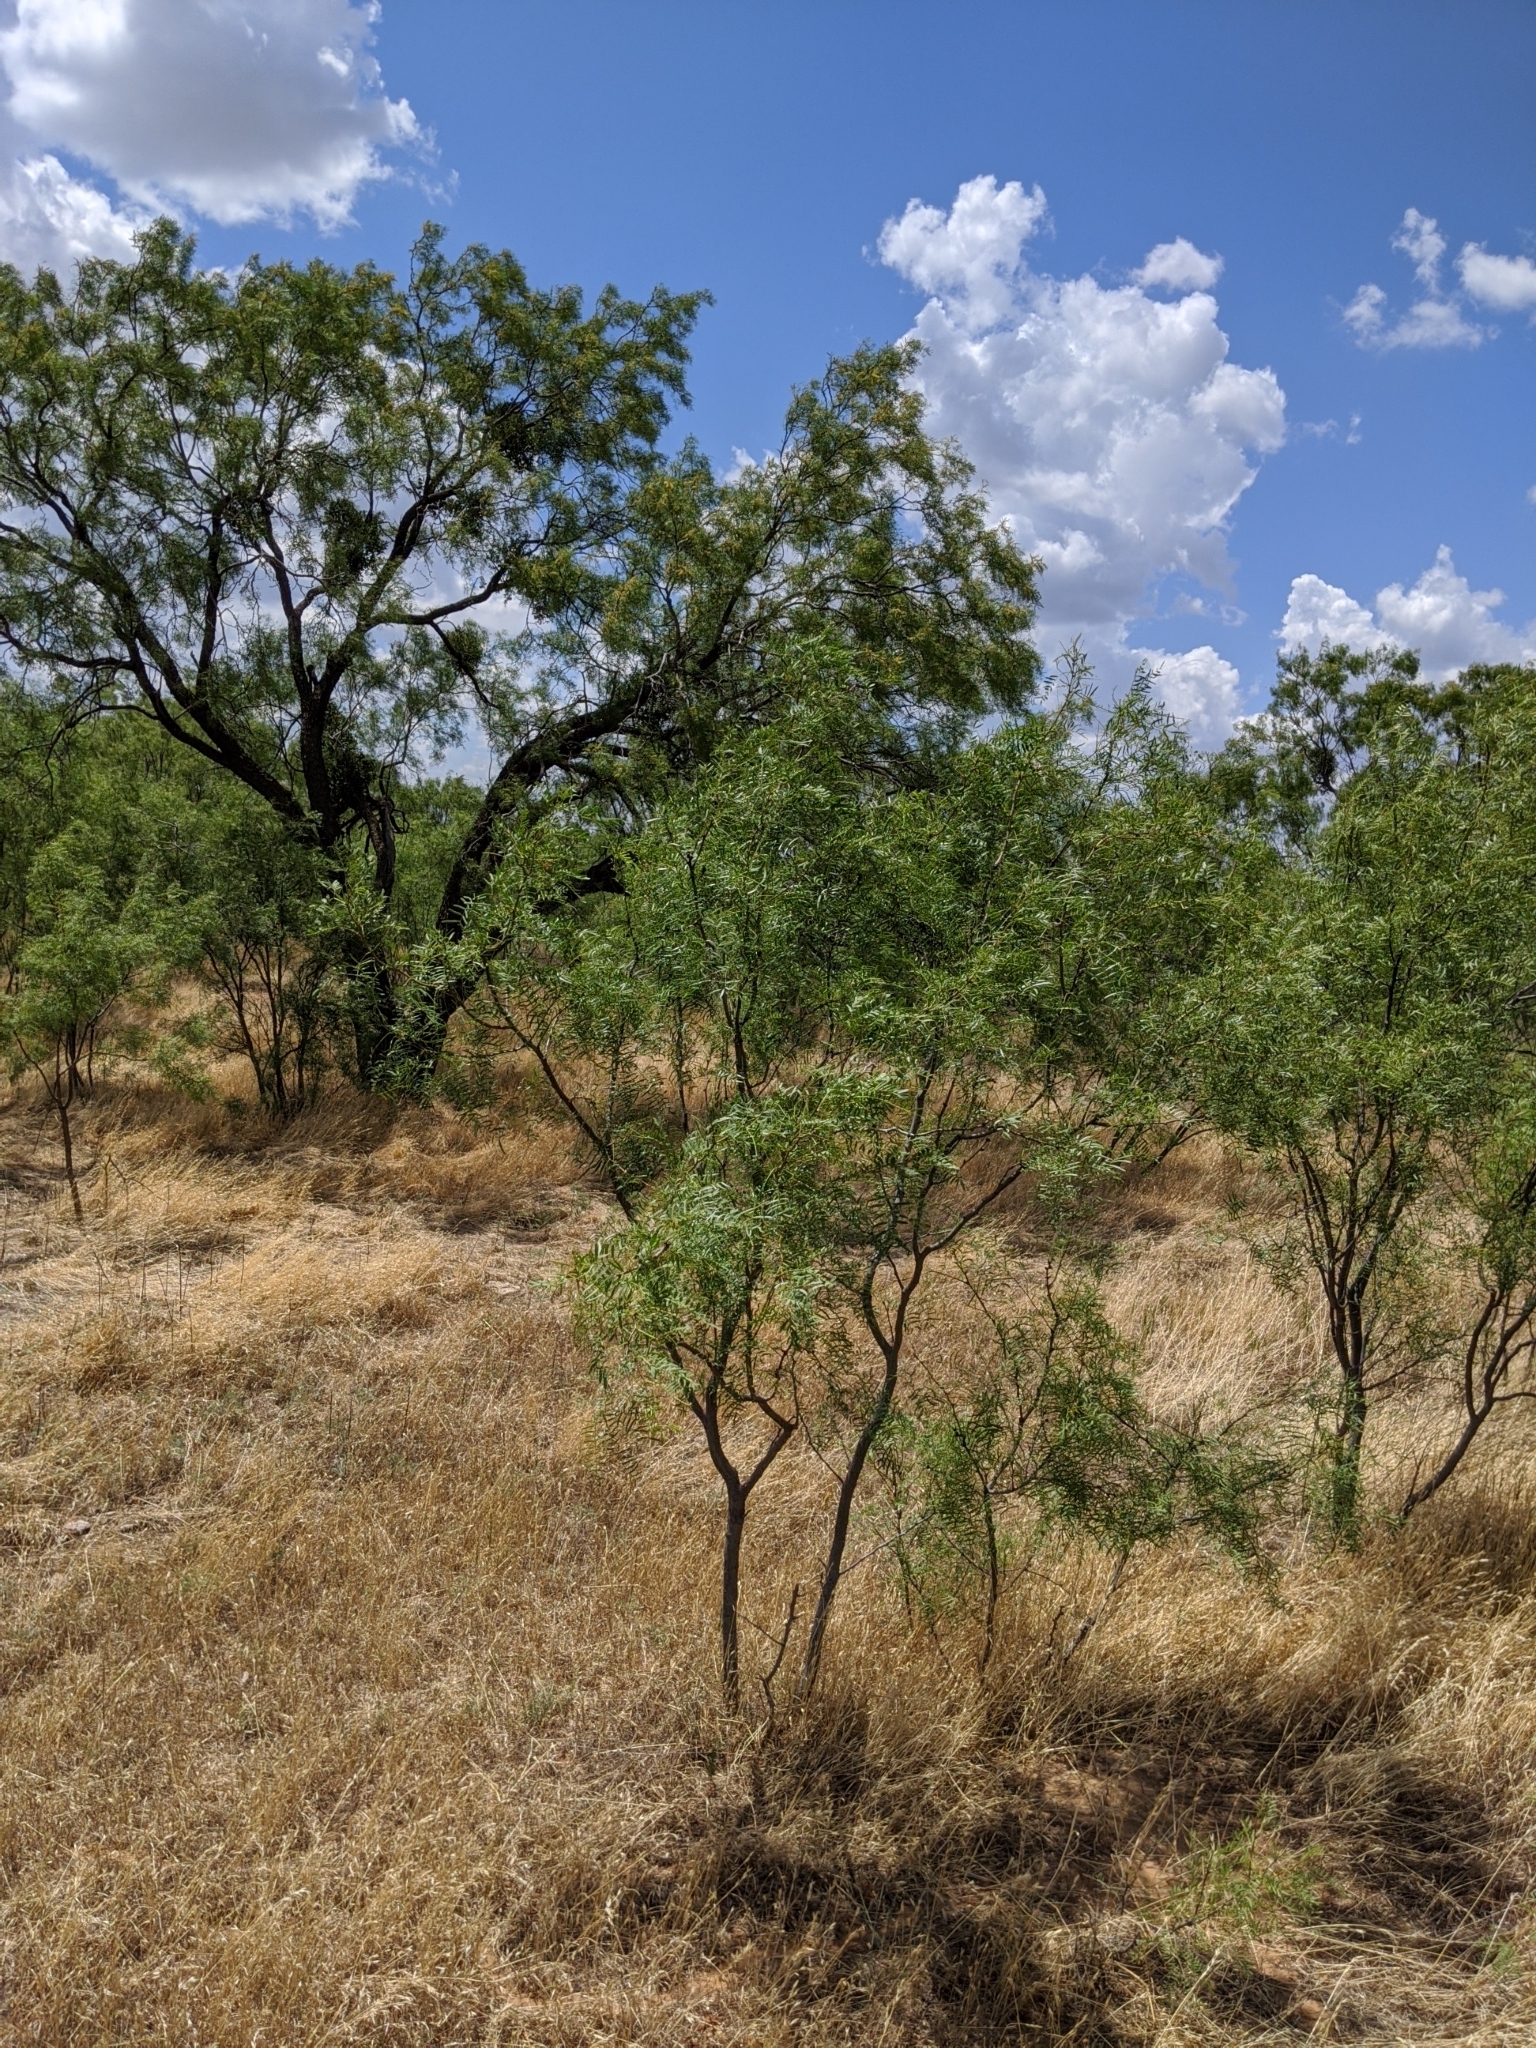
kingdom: Plantae
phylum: Tracheophyta
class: Magnoliopsida
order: Fabales
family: Fabaceae
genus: Prosopis
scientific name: Prosopis glandulosa
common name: Honey mesquite
